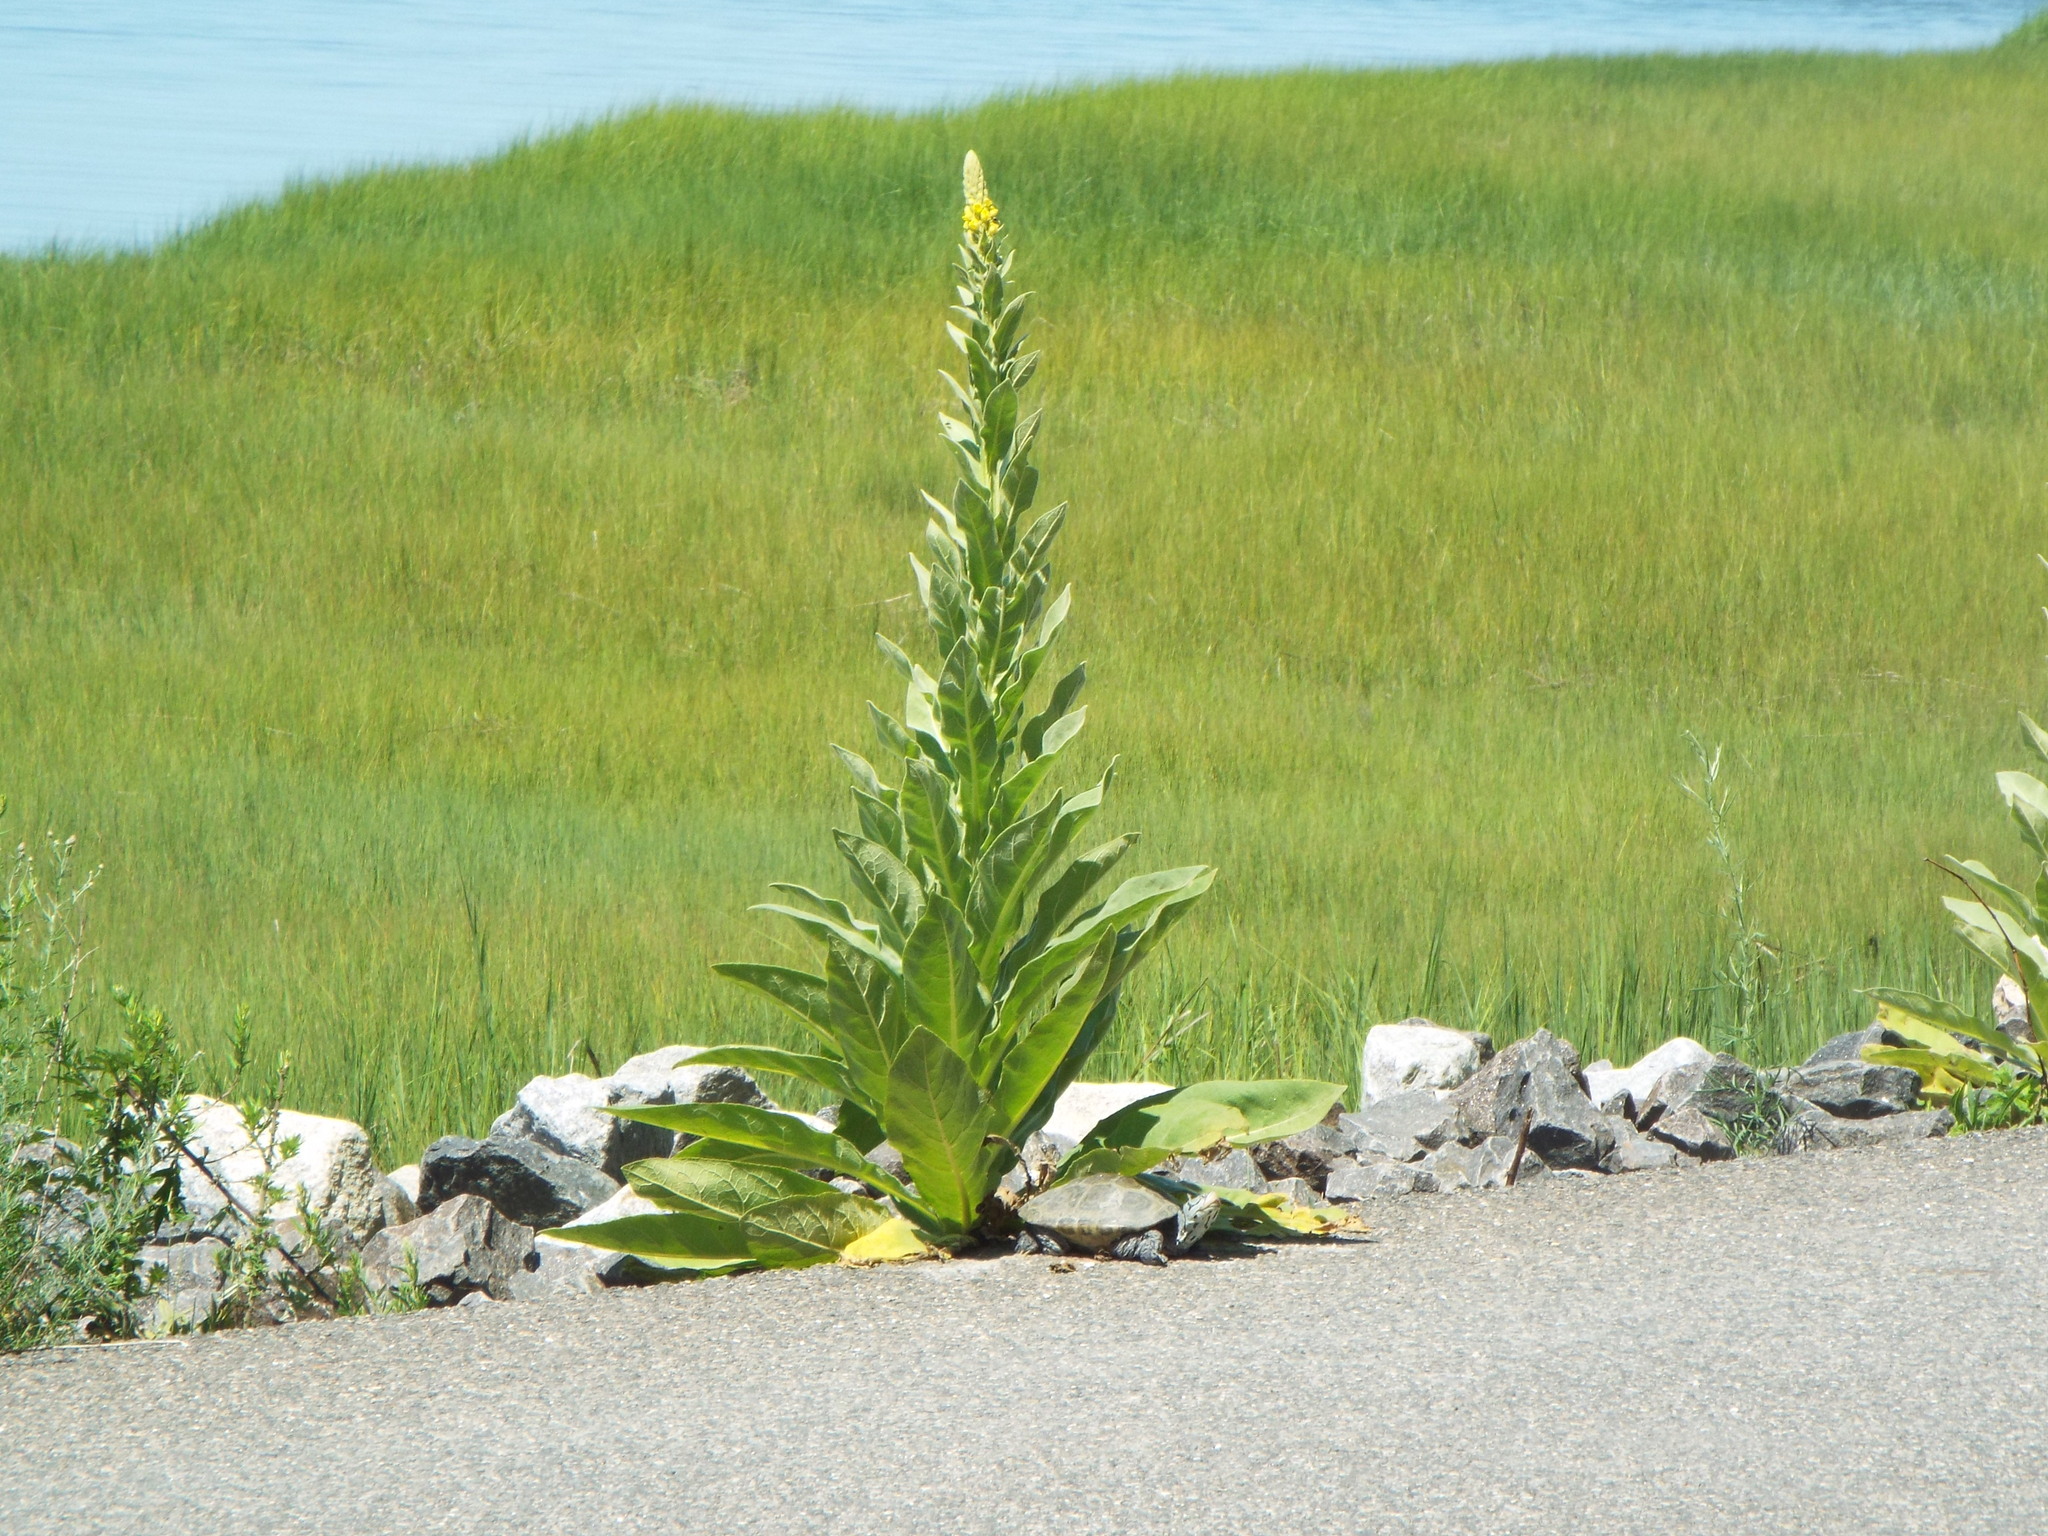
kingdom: Plantae
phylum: Tracheophyta
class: Magnoliopsida
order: Lamiales
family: Scrophulariaceae
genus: Verbascum
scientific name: Verbascum thapsus
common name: Common mullein
